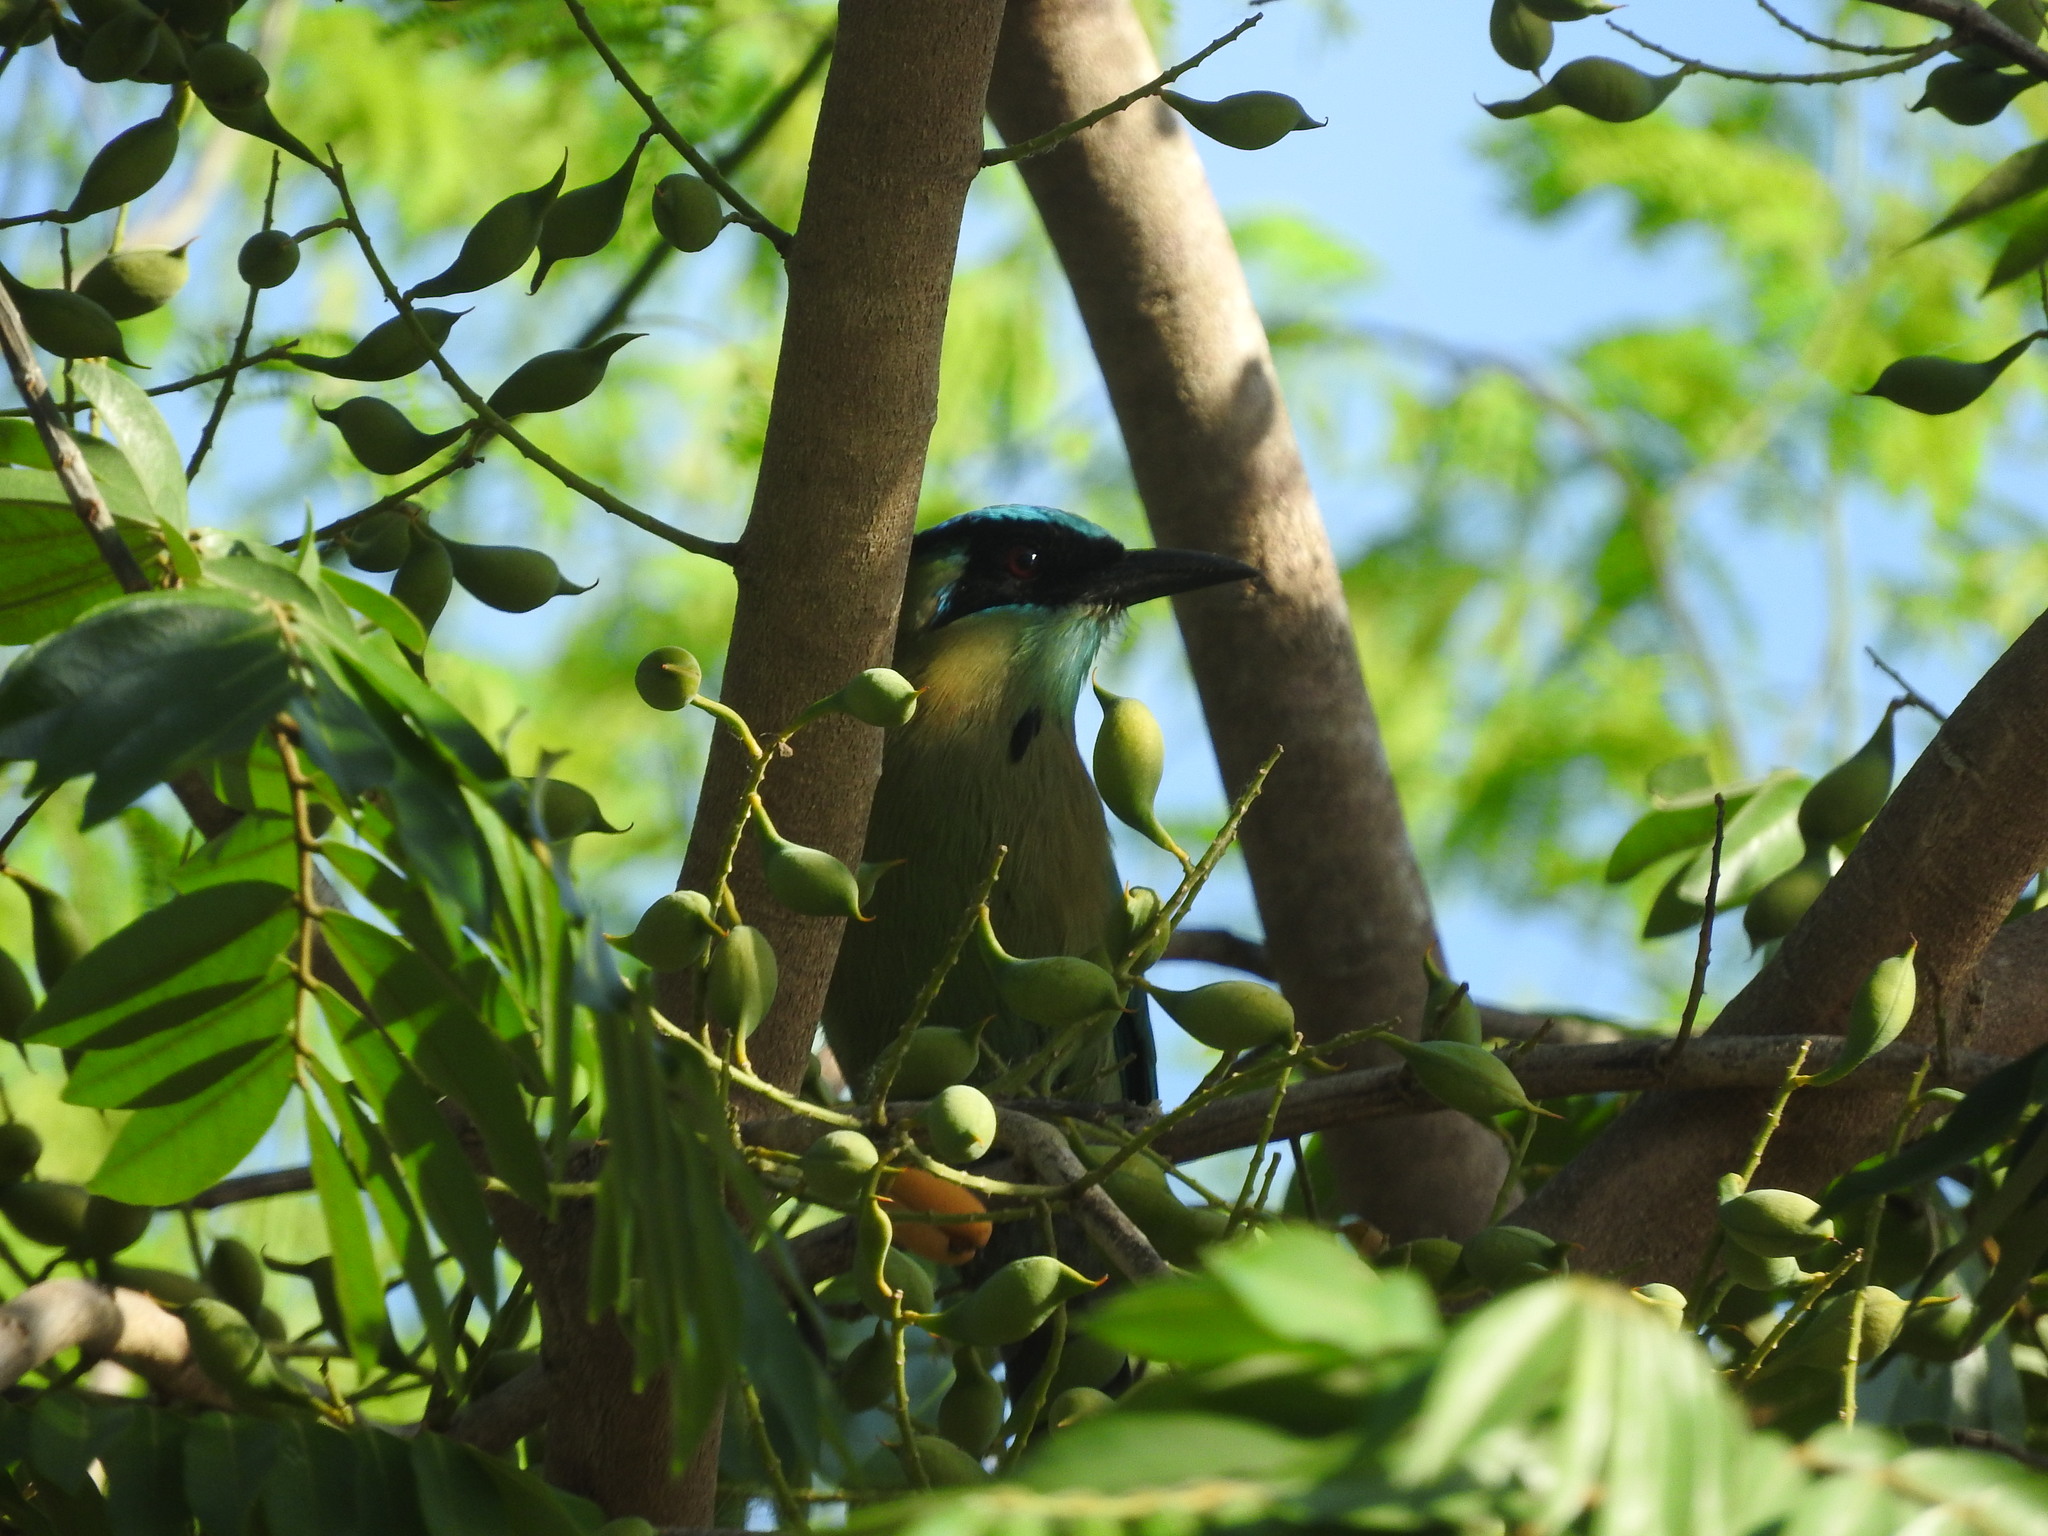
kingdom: Animalia
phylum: Chordata
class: Aves
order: Coraciiformes
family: Momotidae
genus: Momotus
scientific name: Momotus lessonii
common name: Lesson's motmot
